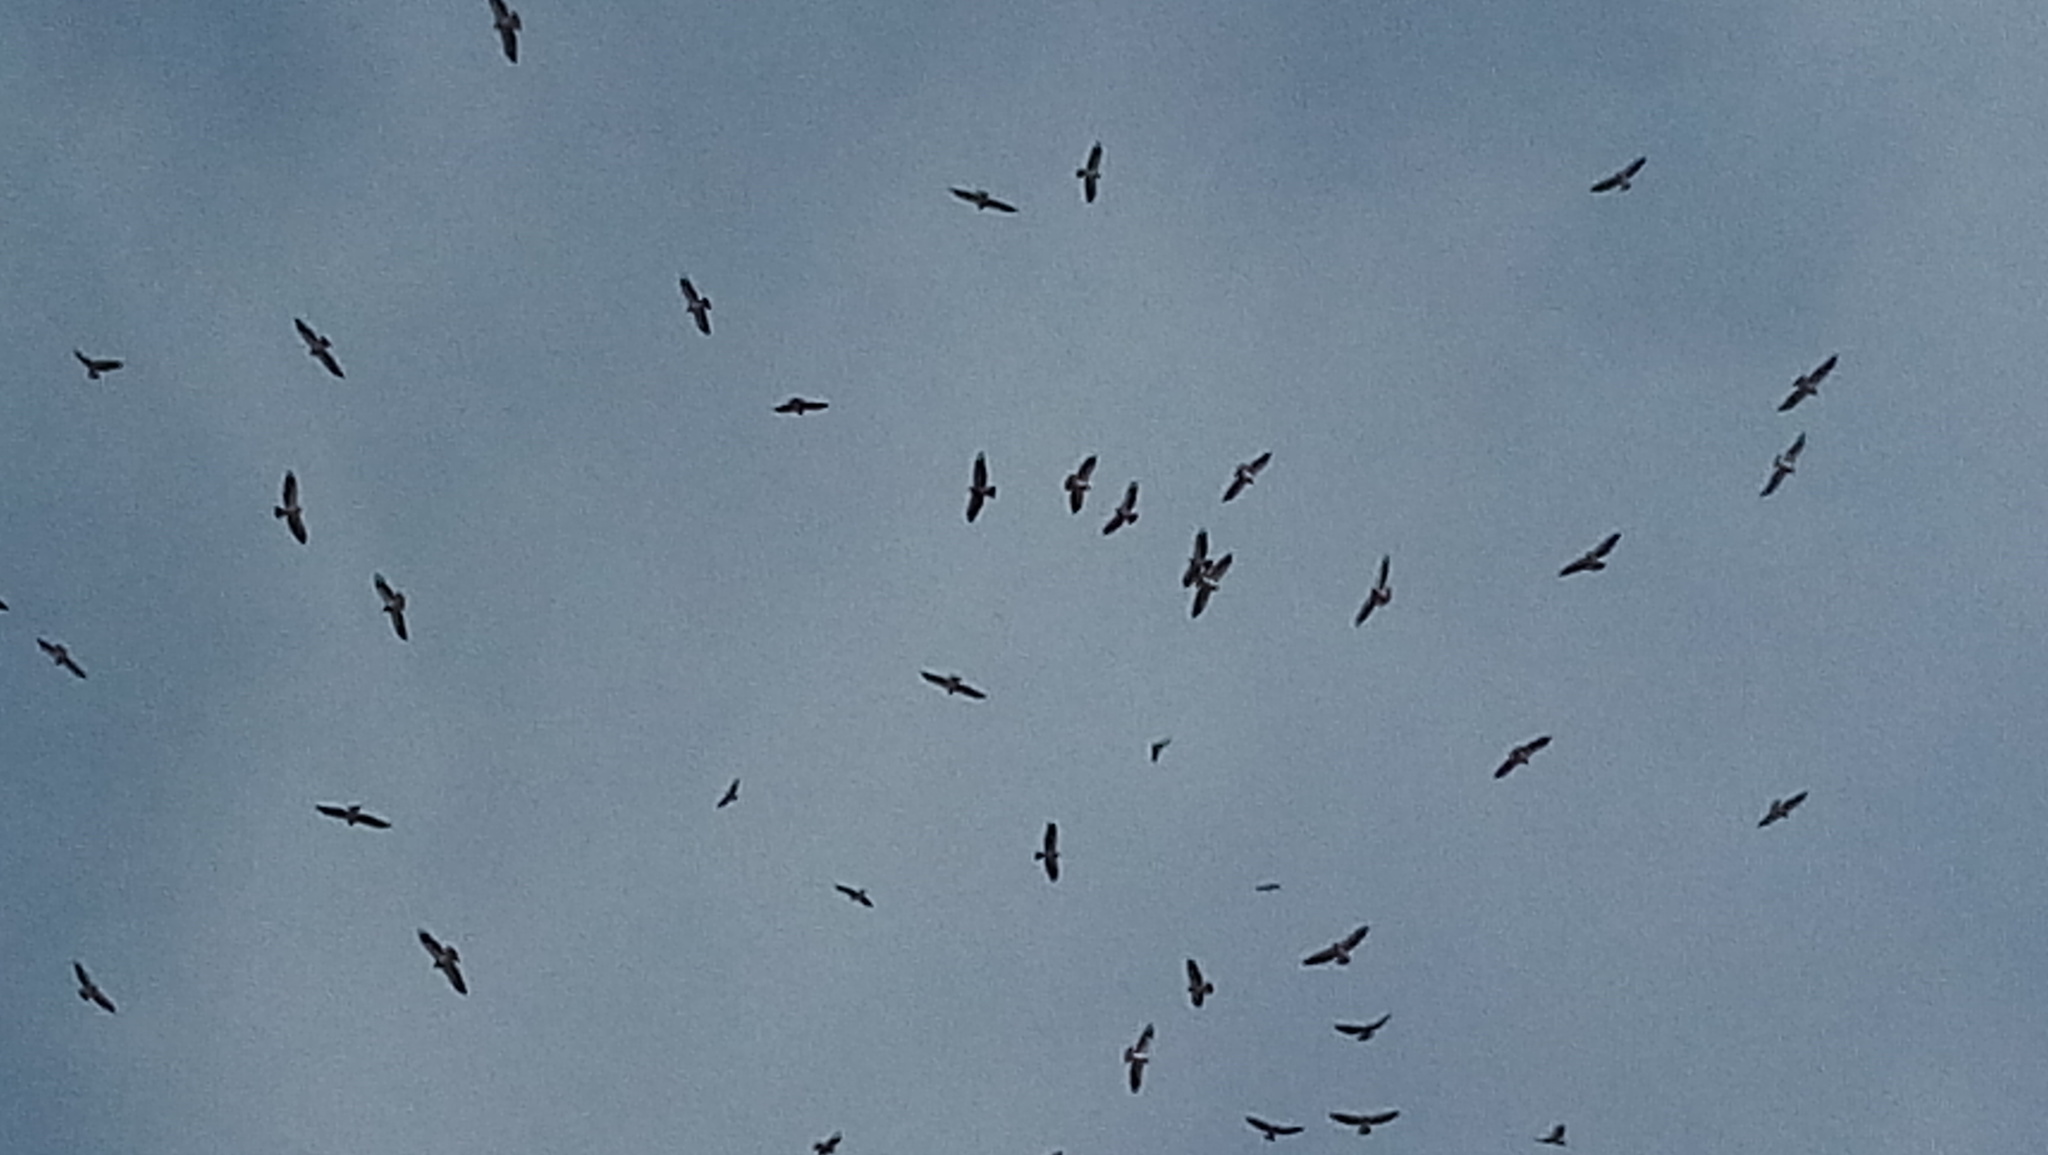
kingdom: Animalia
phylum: Chordata
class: Aves
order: Accipitriformes
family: Accipitridae
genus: Buteo
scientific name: Buteo swainsoni
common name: Swainson's hawk
